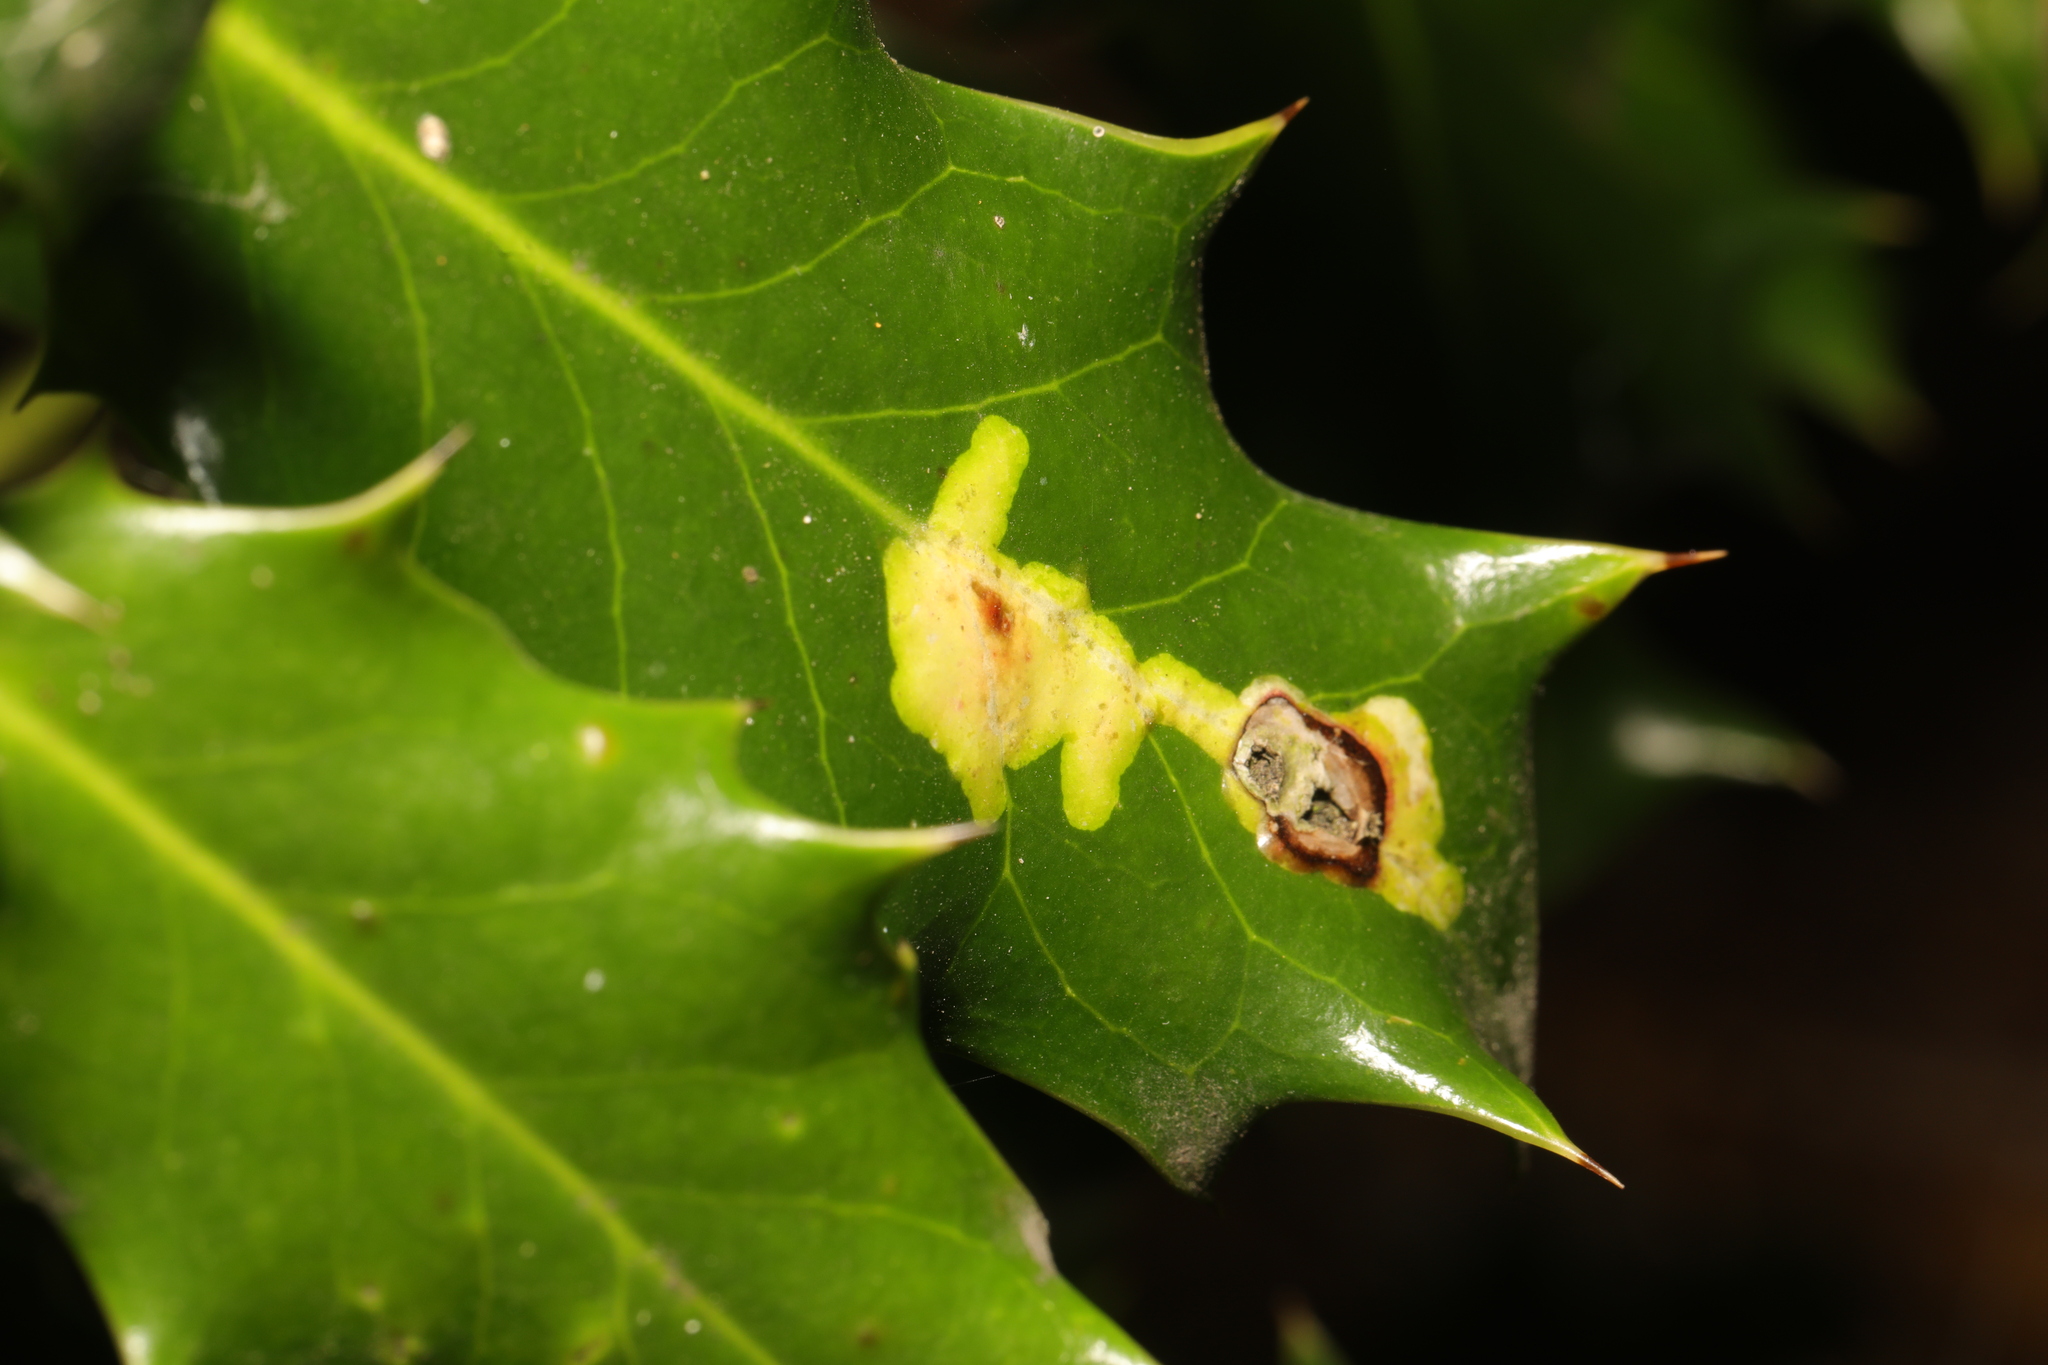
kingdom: Animalia
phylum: Arthropoda
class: Insecta
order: Diptera
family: Agromyzidae
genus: Phytomyza
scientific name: Phytomyza ilicis
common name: Holly leafminer
